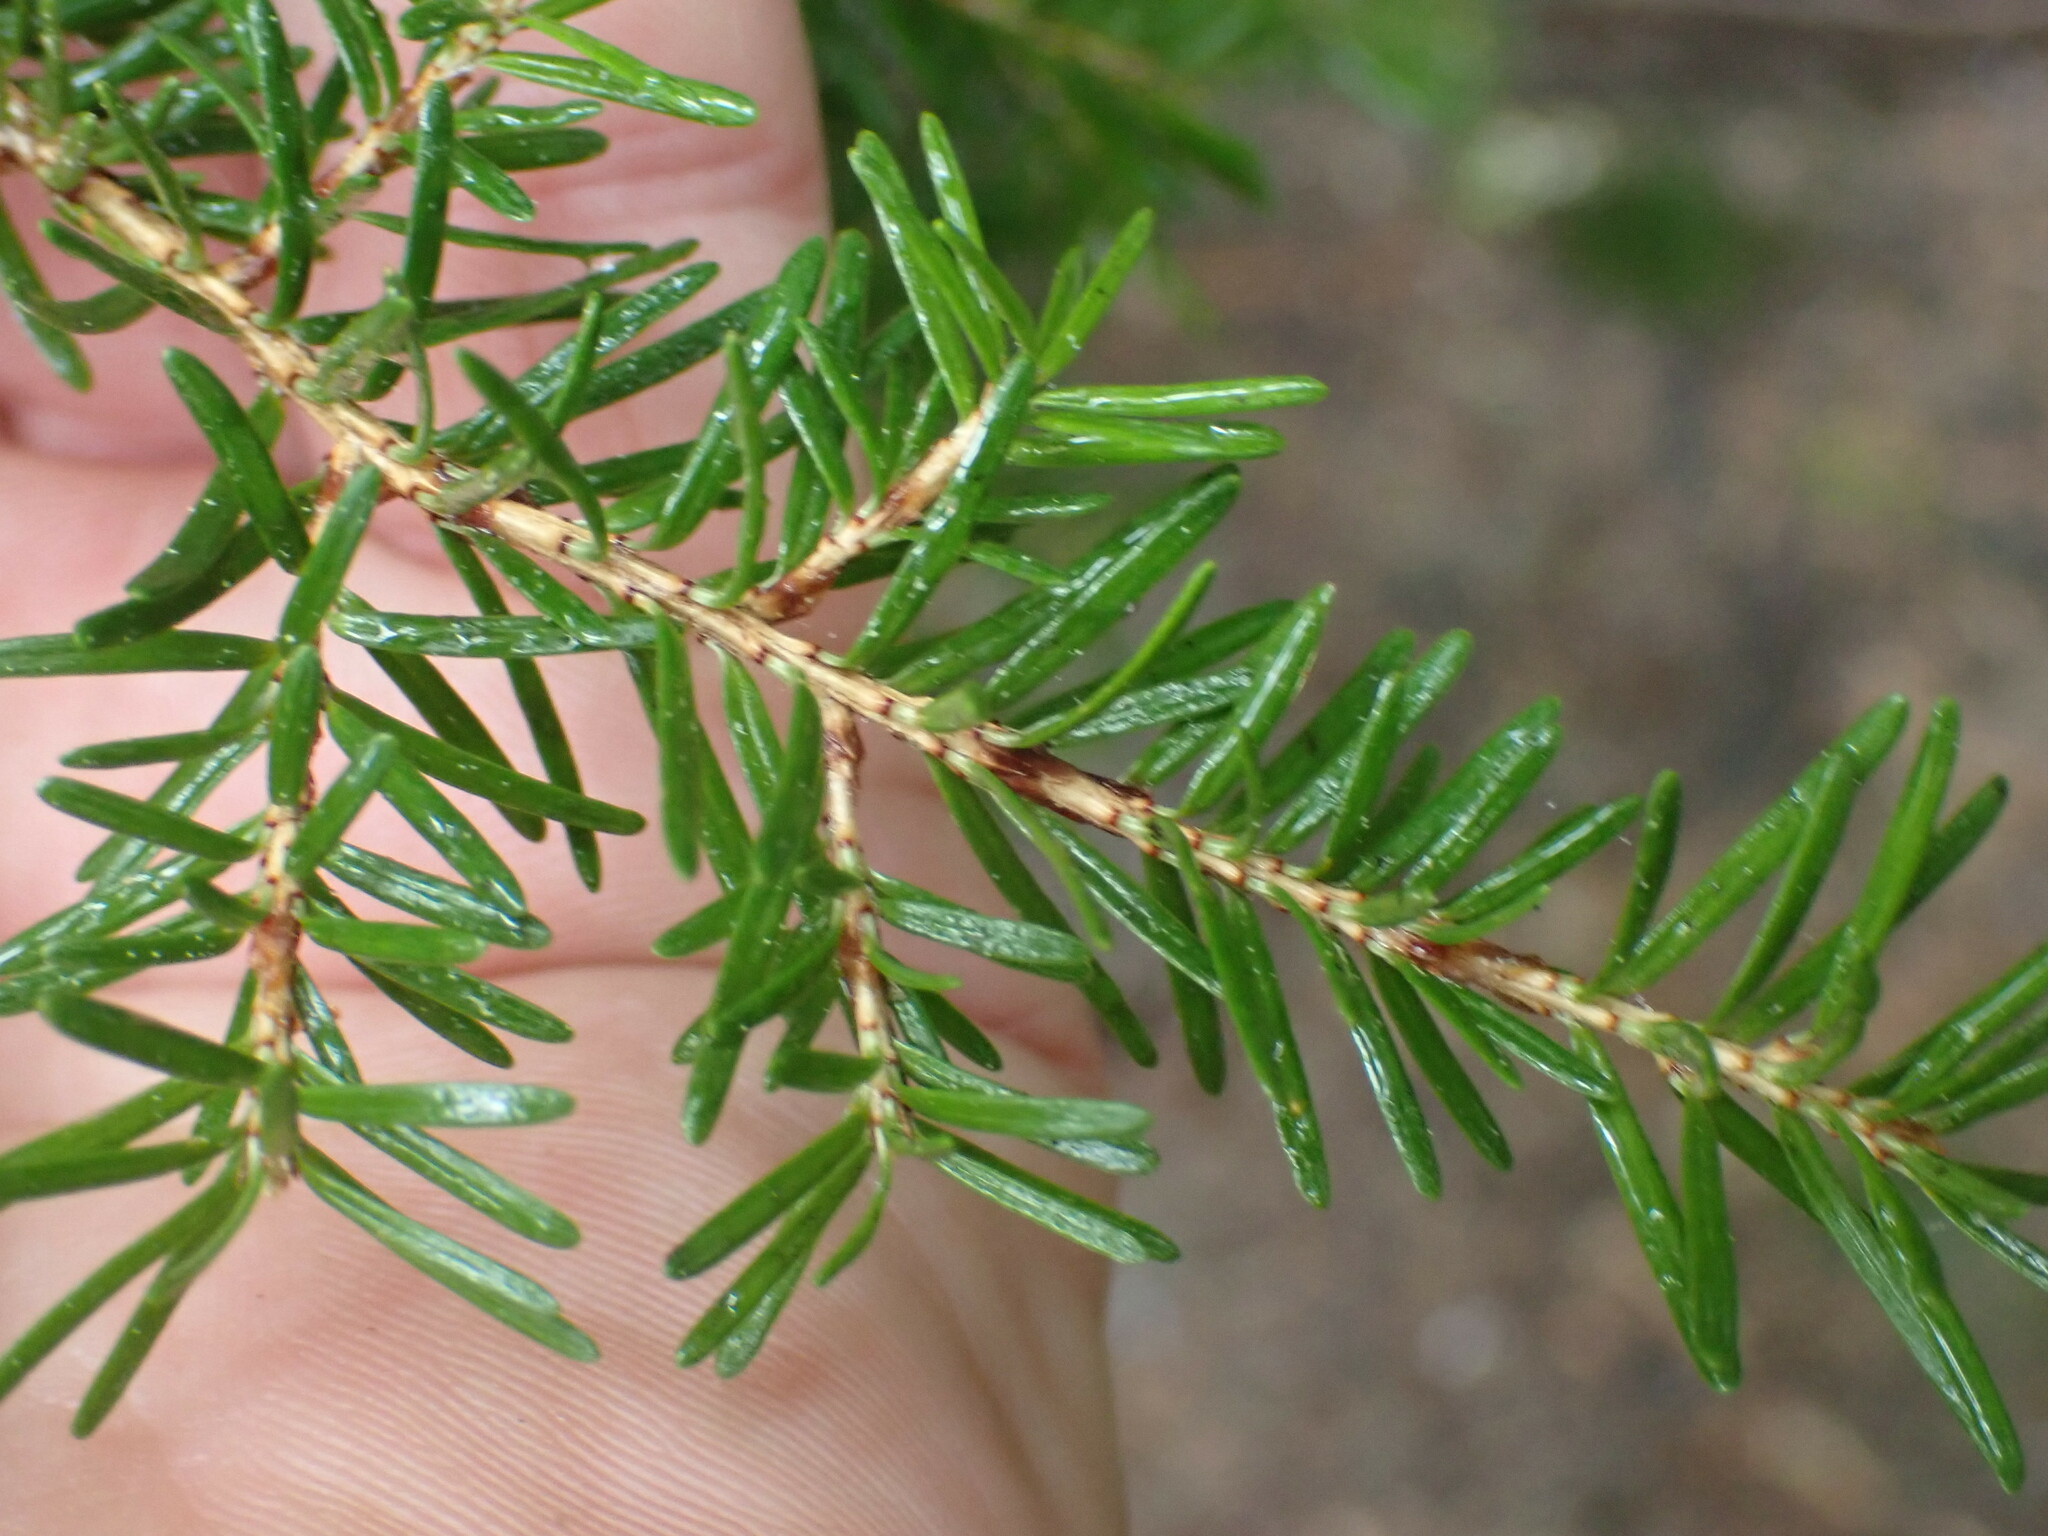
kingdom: Plantae
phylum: Tracheophyta
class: Pinopsida
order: Pinales
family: Pinaceae
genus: Tsuga
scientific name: Tsuga heterophylla
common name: Western hemlock
